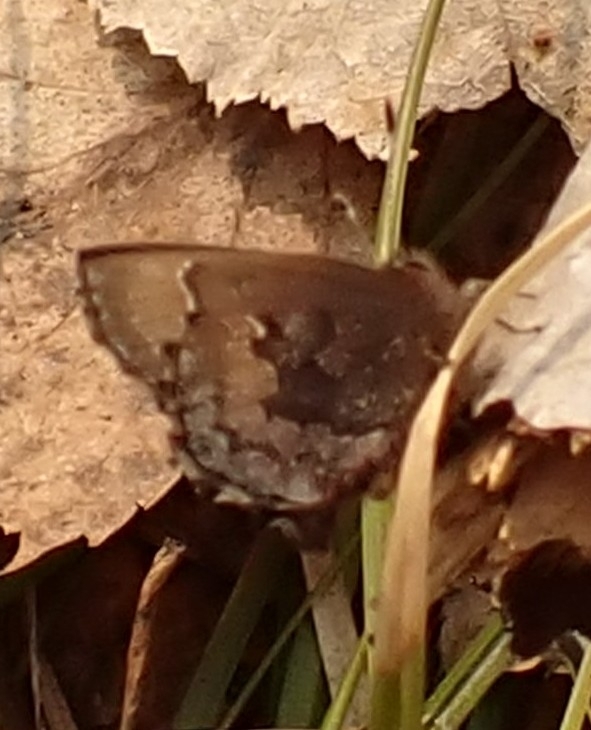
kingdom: Animalia
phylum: Arthropoda
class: Insecta
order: Lepidoptera
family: Lycaenidae
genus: Ginzia
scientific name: Ginzia Ahlbergia frivaldszkyi
